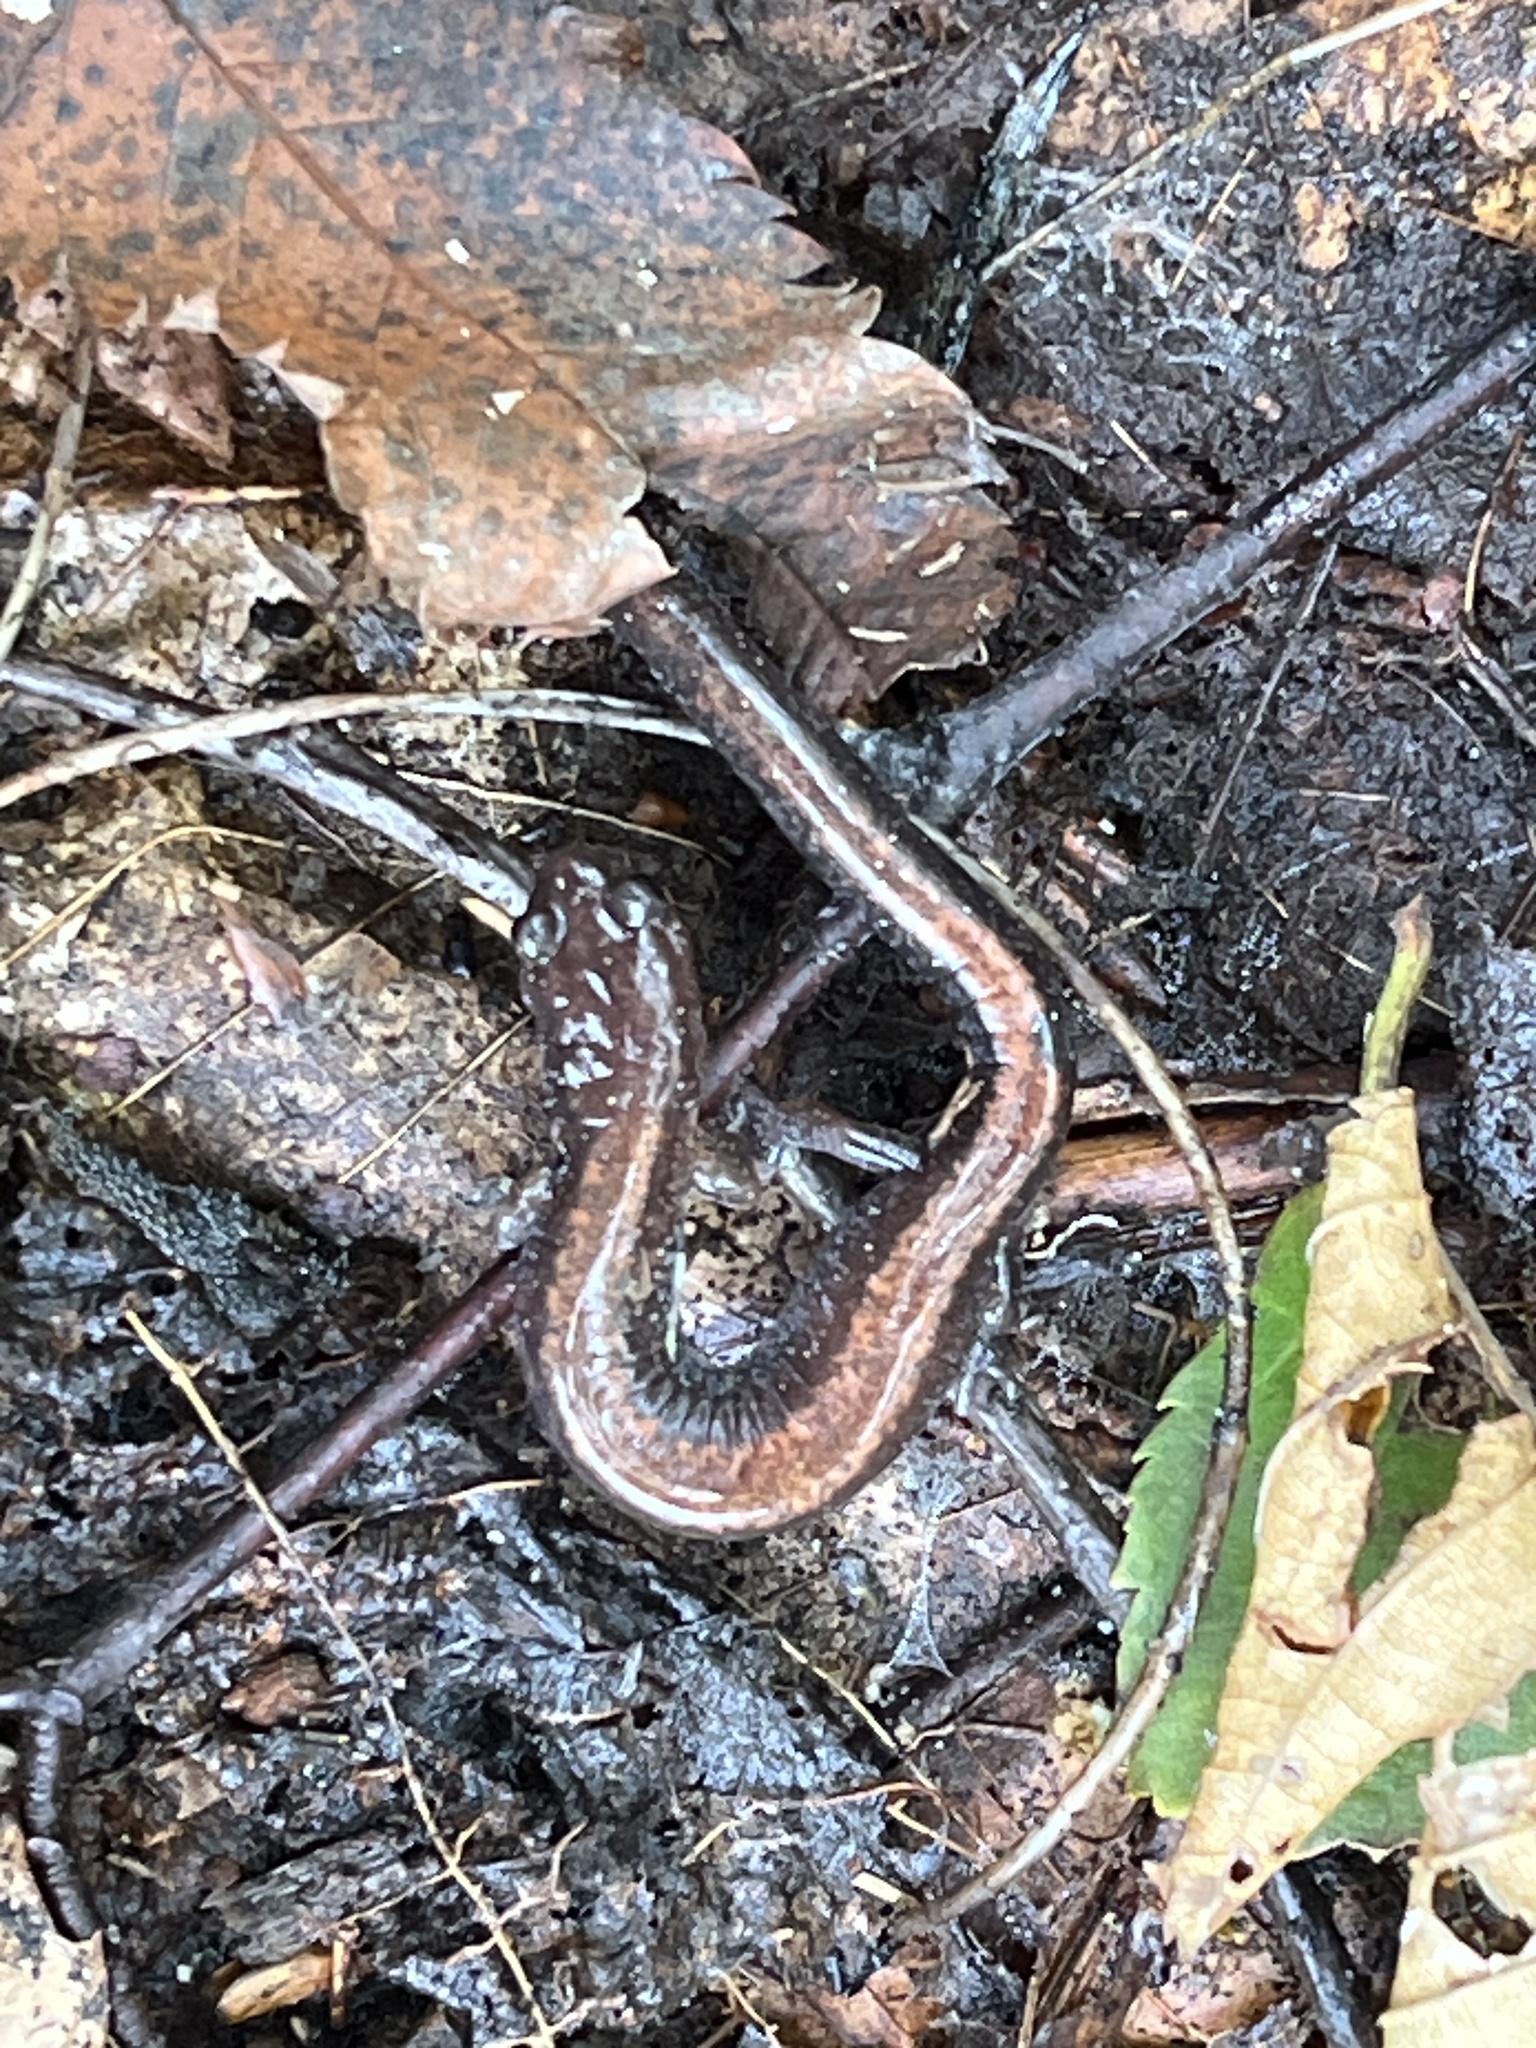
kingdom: Animalia
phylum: Chordata
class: Amphibia
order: Caudata
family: Plethodontidae
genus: Plethodon
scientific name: Plethodon cinereus
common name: Redback salamander
